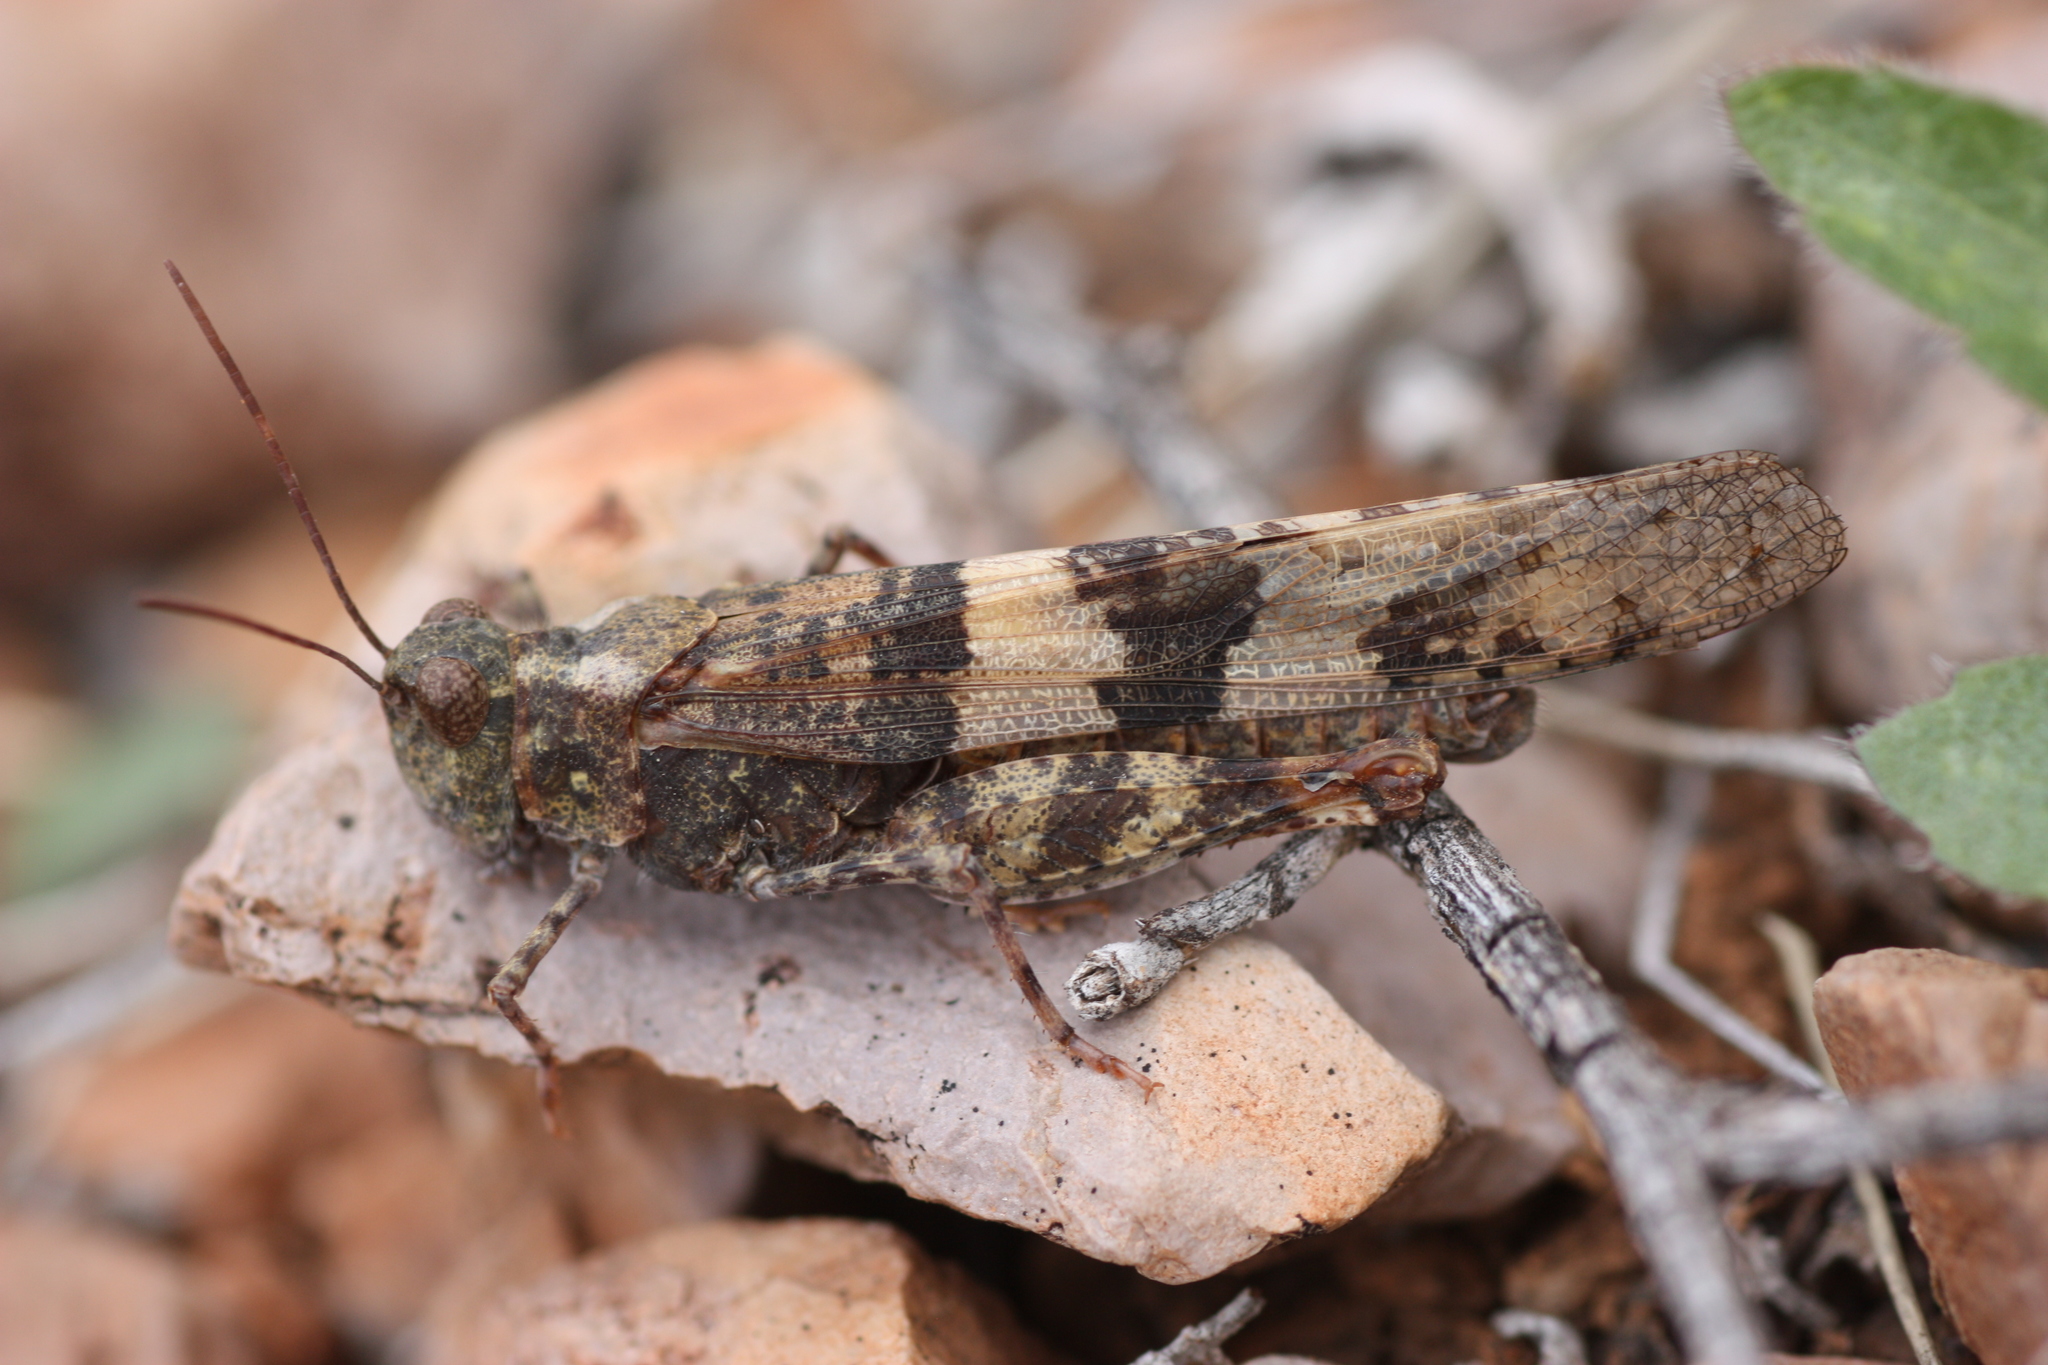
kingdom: Animalia
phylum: Arthropoda
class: Insecta
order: Orthoptera
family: Acrididae
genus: Trimerotropis
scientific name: Trimerotropis pallidipennis
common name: Pallid-winged grasshopper
